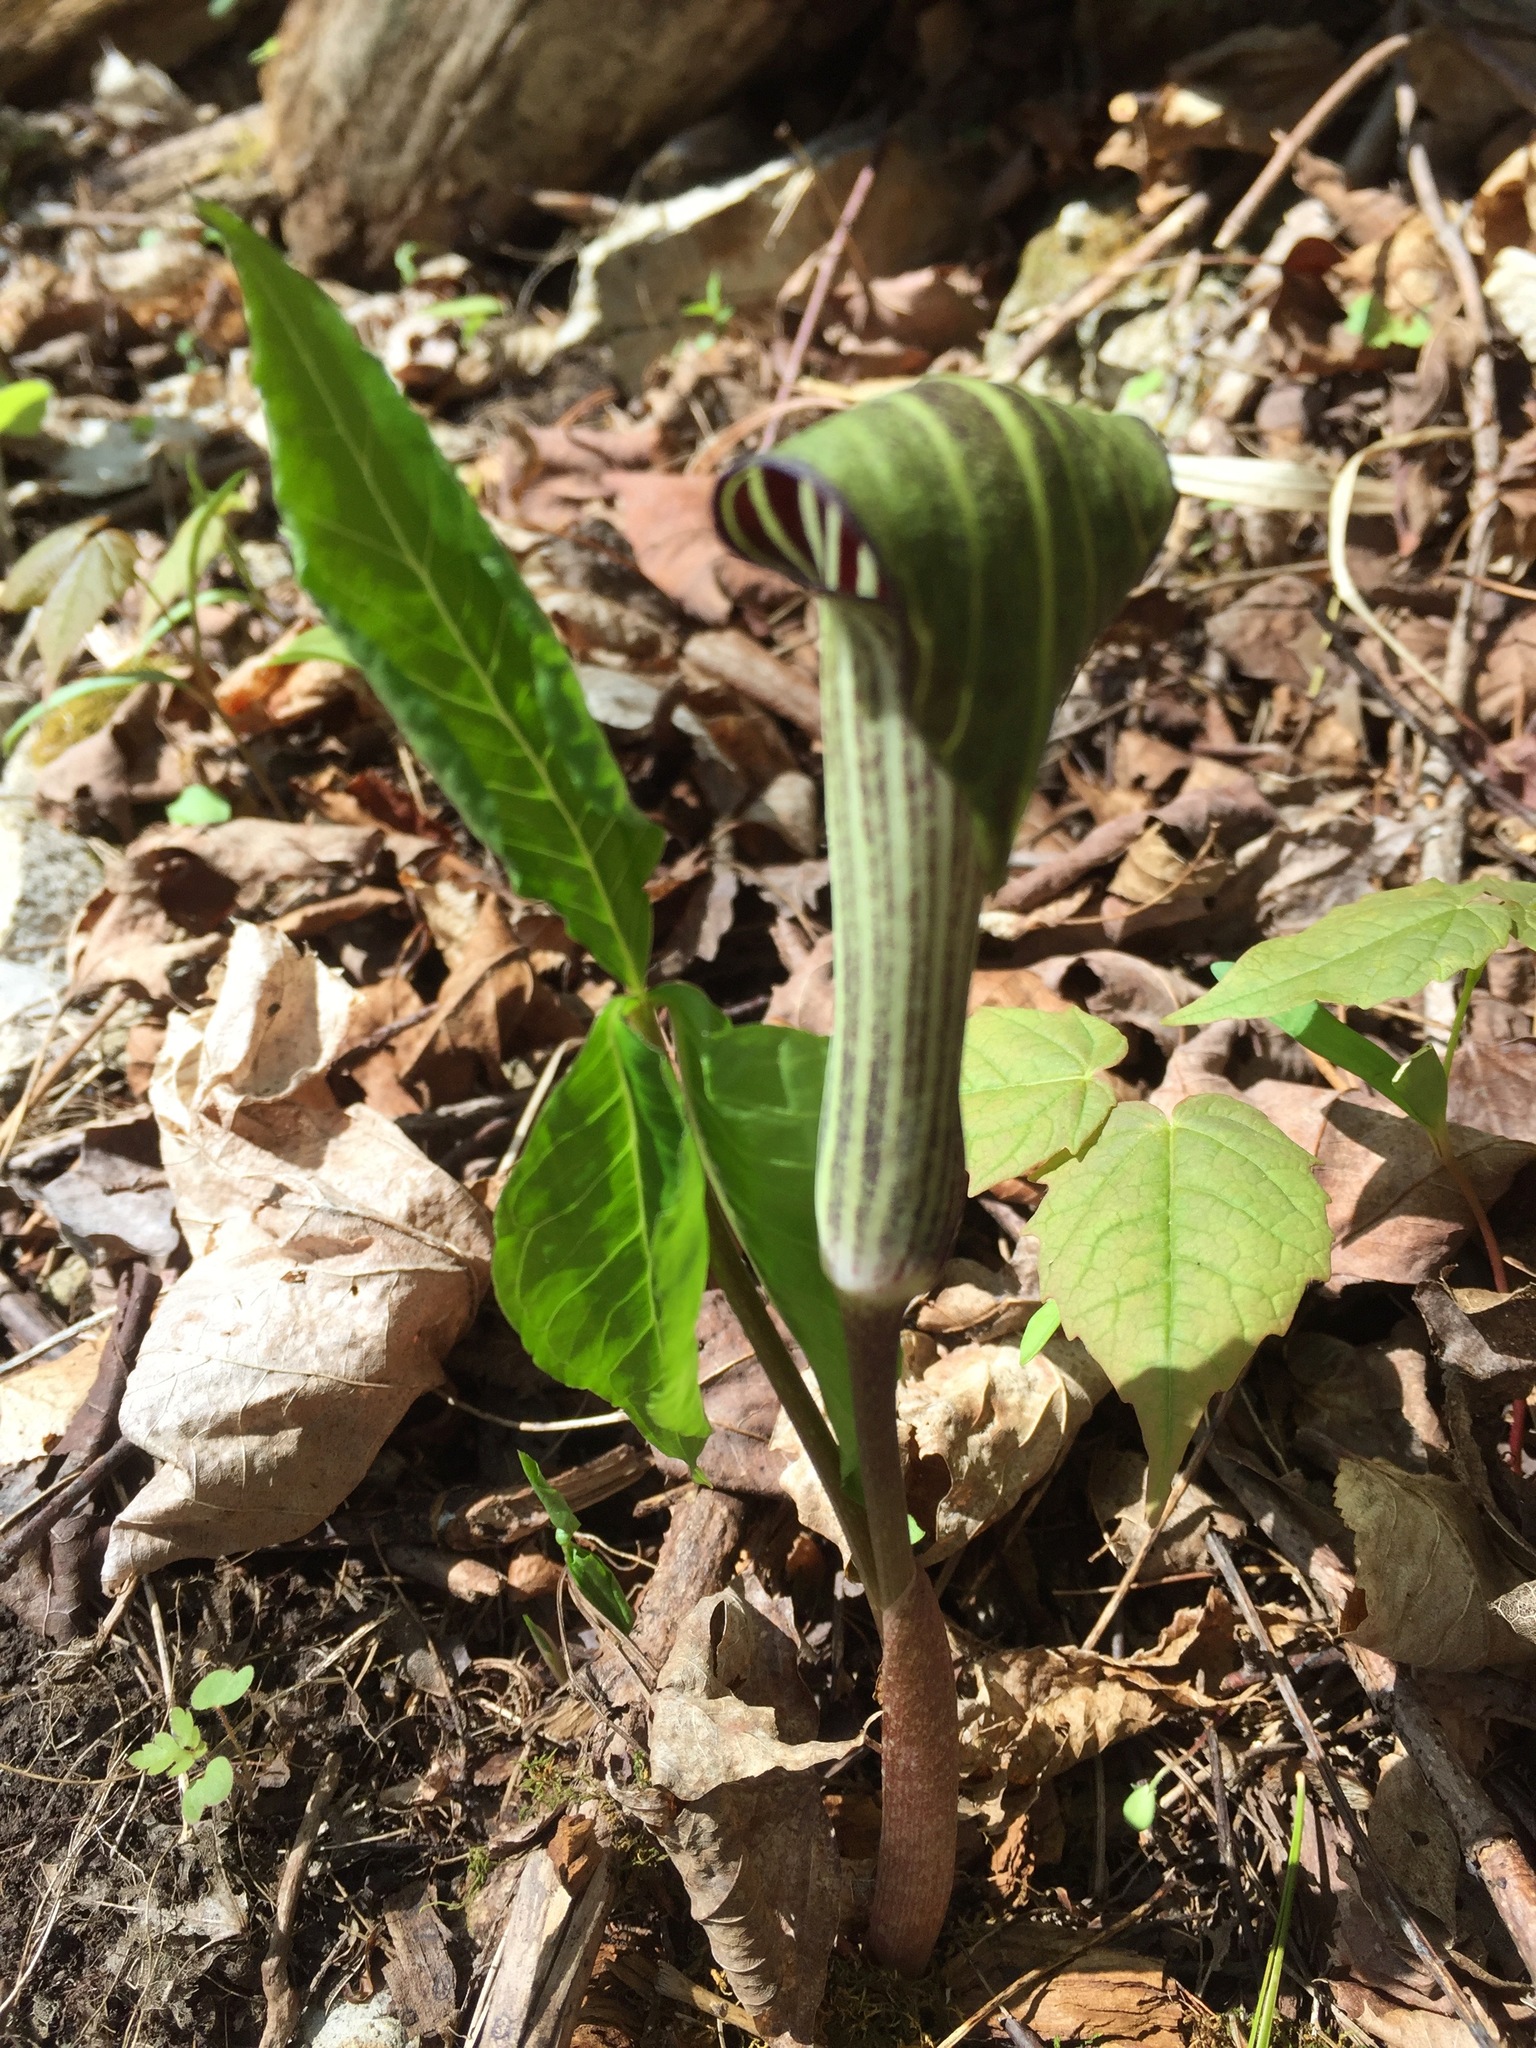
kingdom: Plantae
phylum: Tracheophyta
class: Liliopsida
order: Alismatales
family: Araceae
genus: Arisaema
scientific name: Arisaema triphyllum
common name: Jack-in-the-pulpit
